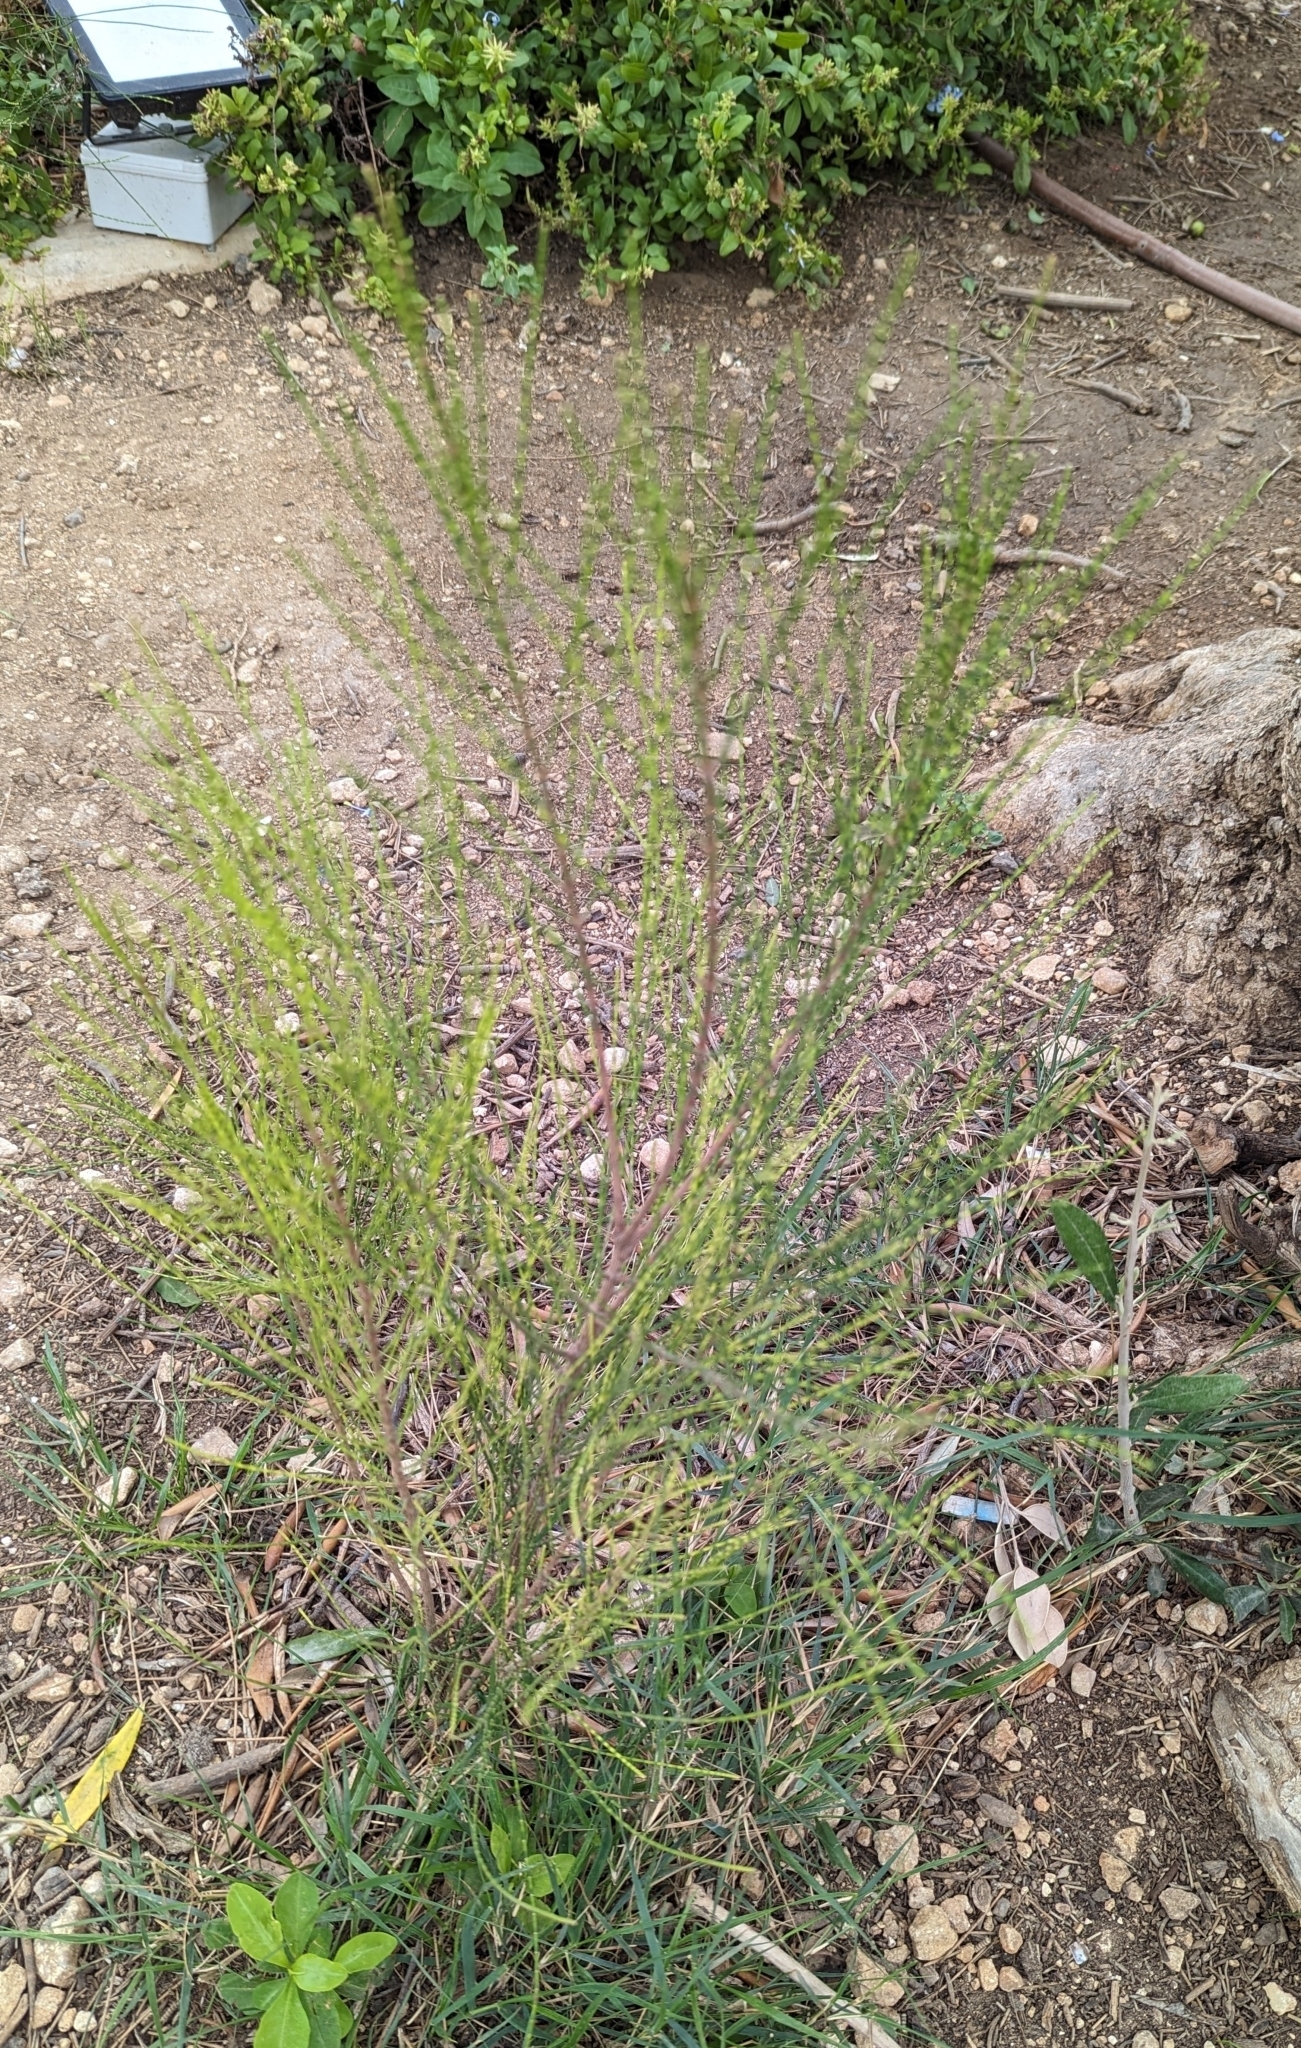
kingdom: Plantae
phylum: Tracheophyta
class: Magnoliopsida
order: Fagales
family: Casuarinaceae
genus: Casuarina
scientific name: Casuarina equisetifolia
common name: Beach sheoak
